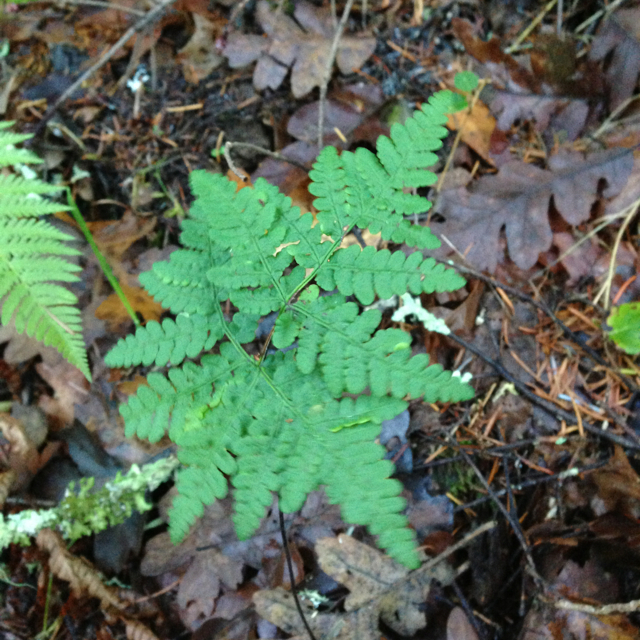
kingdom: Plantae
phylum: Tracheophyta
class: Polypodiopsida
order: Polypodiales
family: Pteridaceae
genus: Pentagramma
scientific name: Pentagramma triangularis
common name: Gold fern
